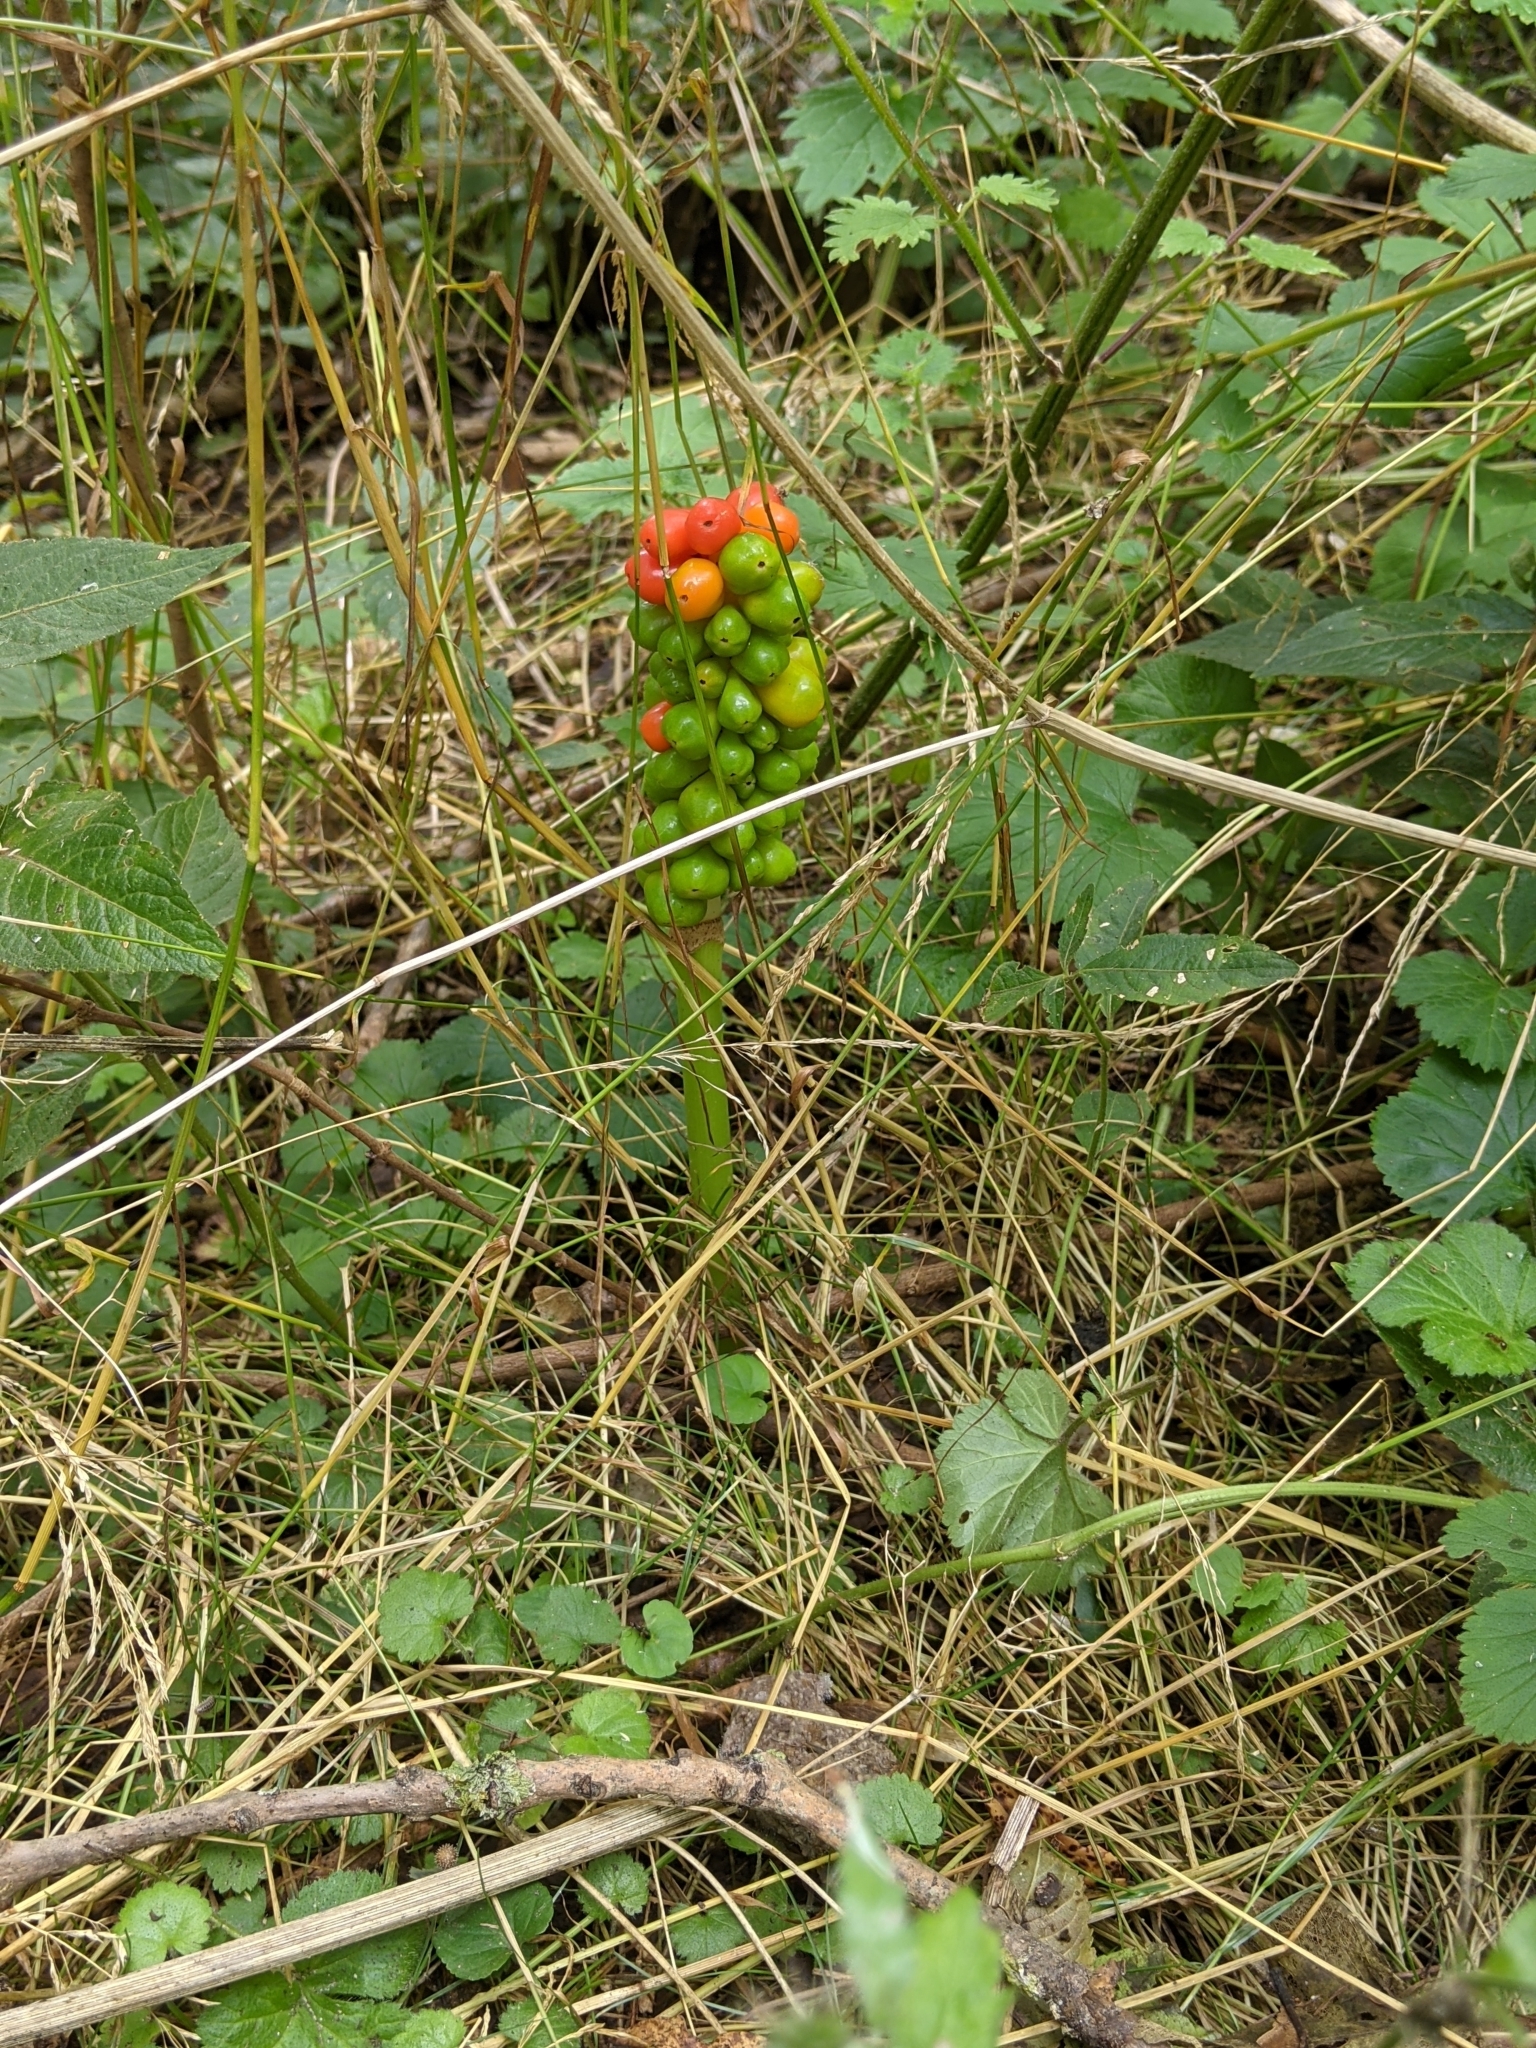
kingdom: Plantae
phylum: Tracheophyta
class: Liliopsida
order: Alismatales
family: Araceae
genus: Arum
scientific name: Arum maculatum
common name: Lords-and-ladies
